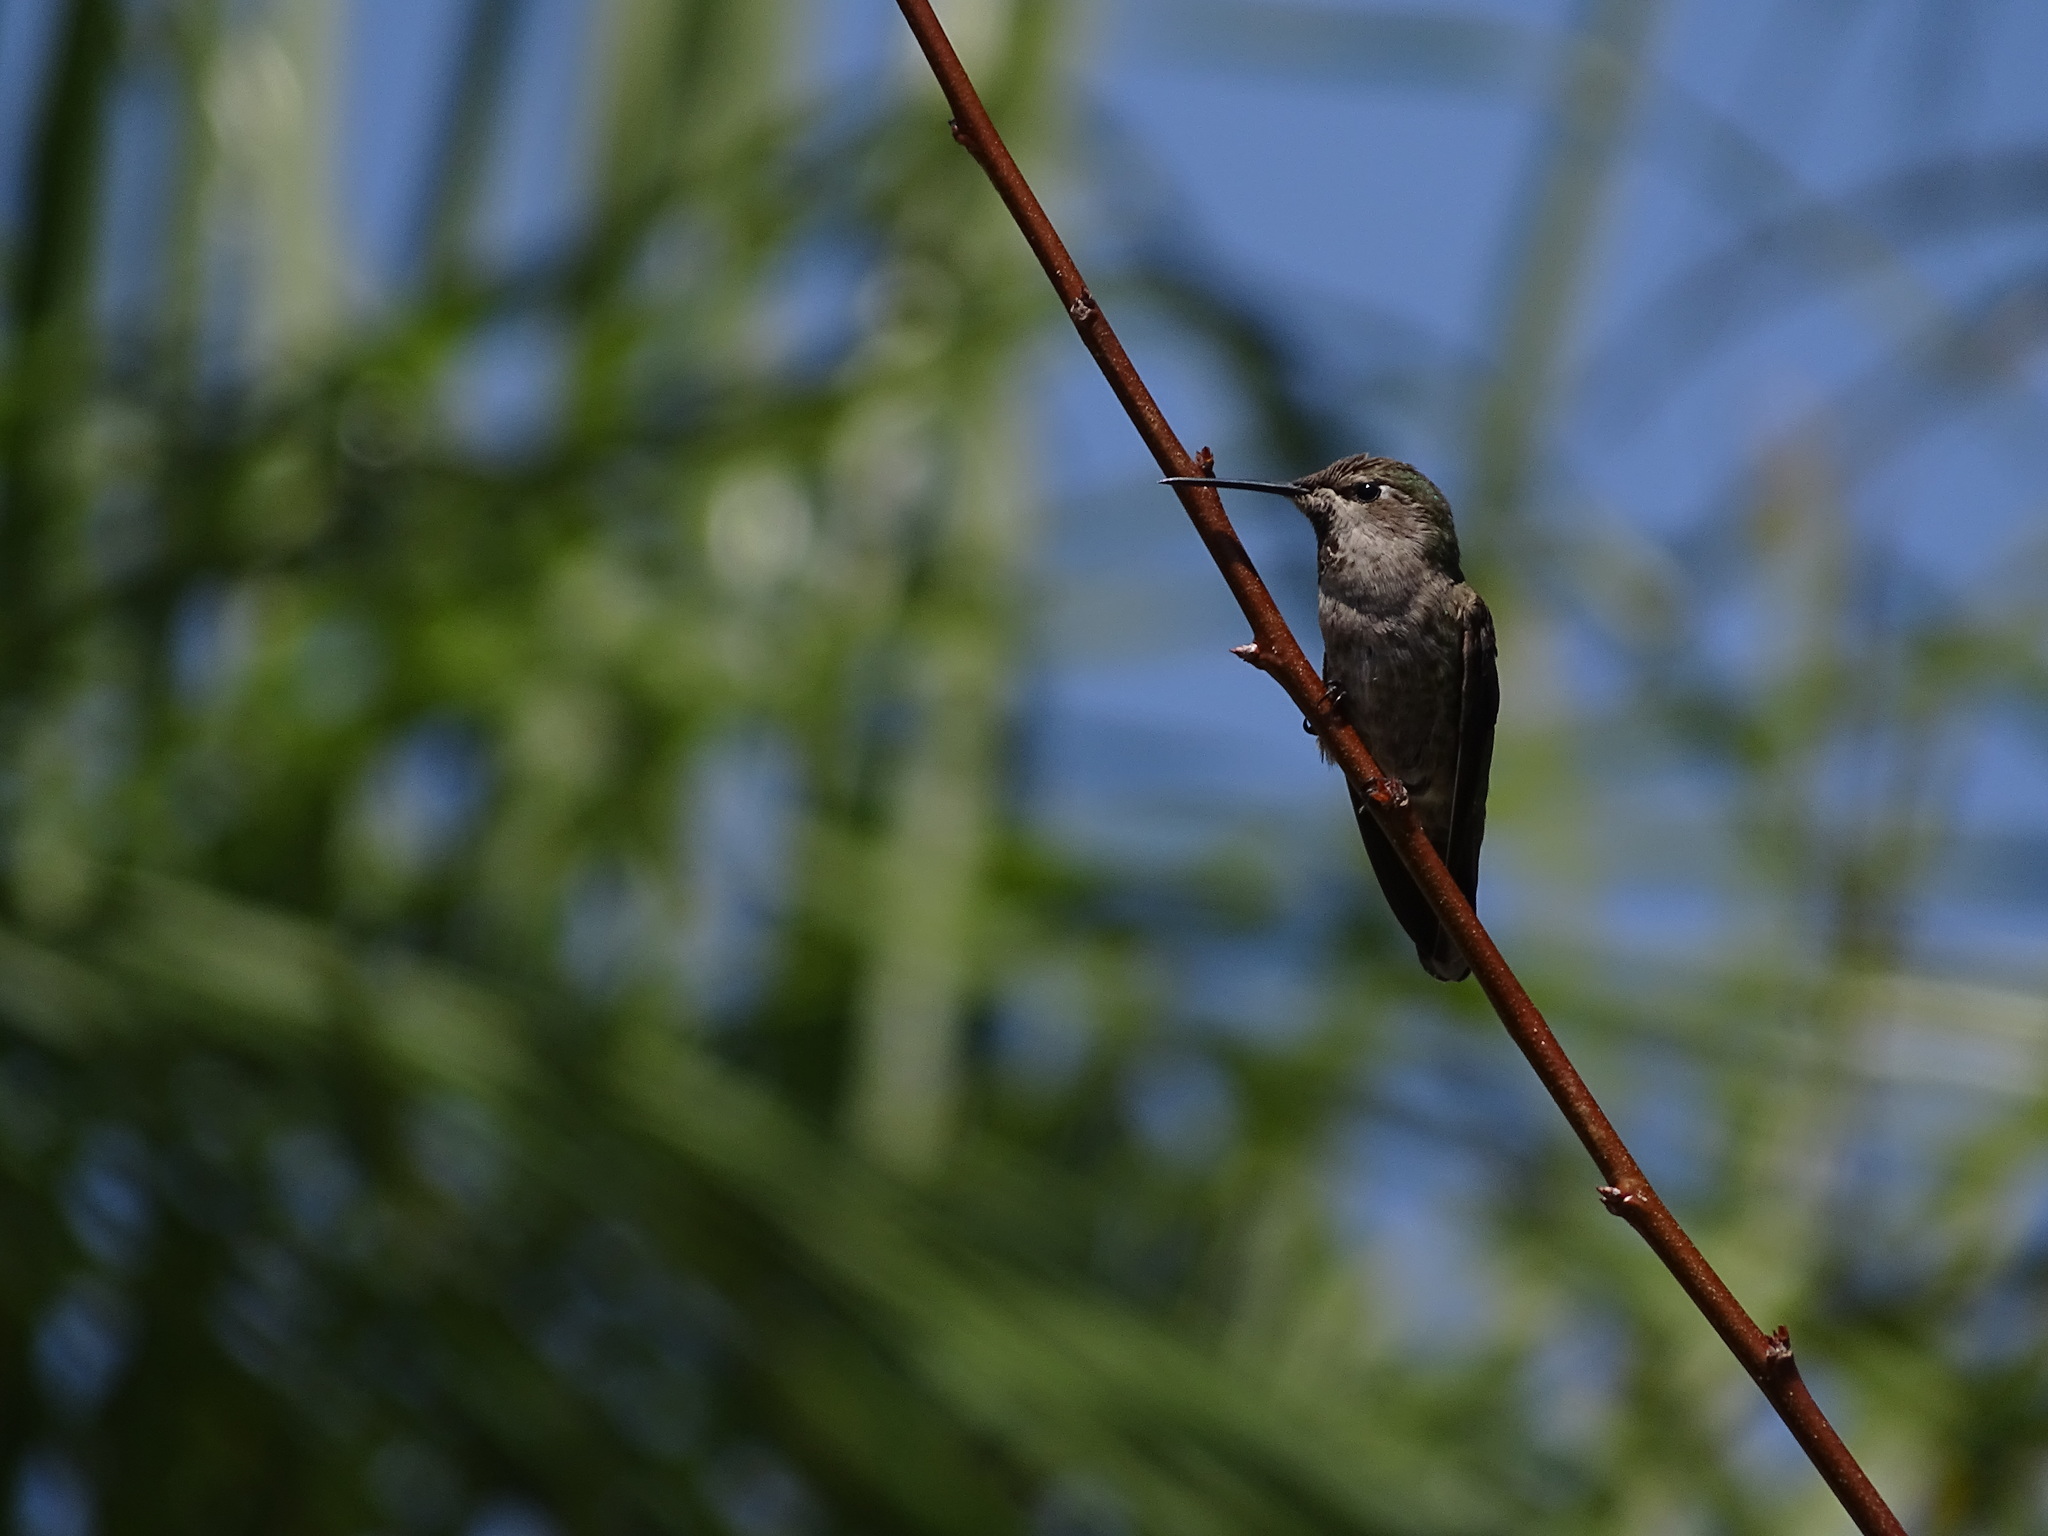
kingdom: Animalia
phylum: Chordata
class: Aves
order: Apodiformes
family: Trochilidae
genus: Calypte
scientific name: Calypte anna
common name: Anna's hummingbird
